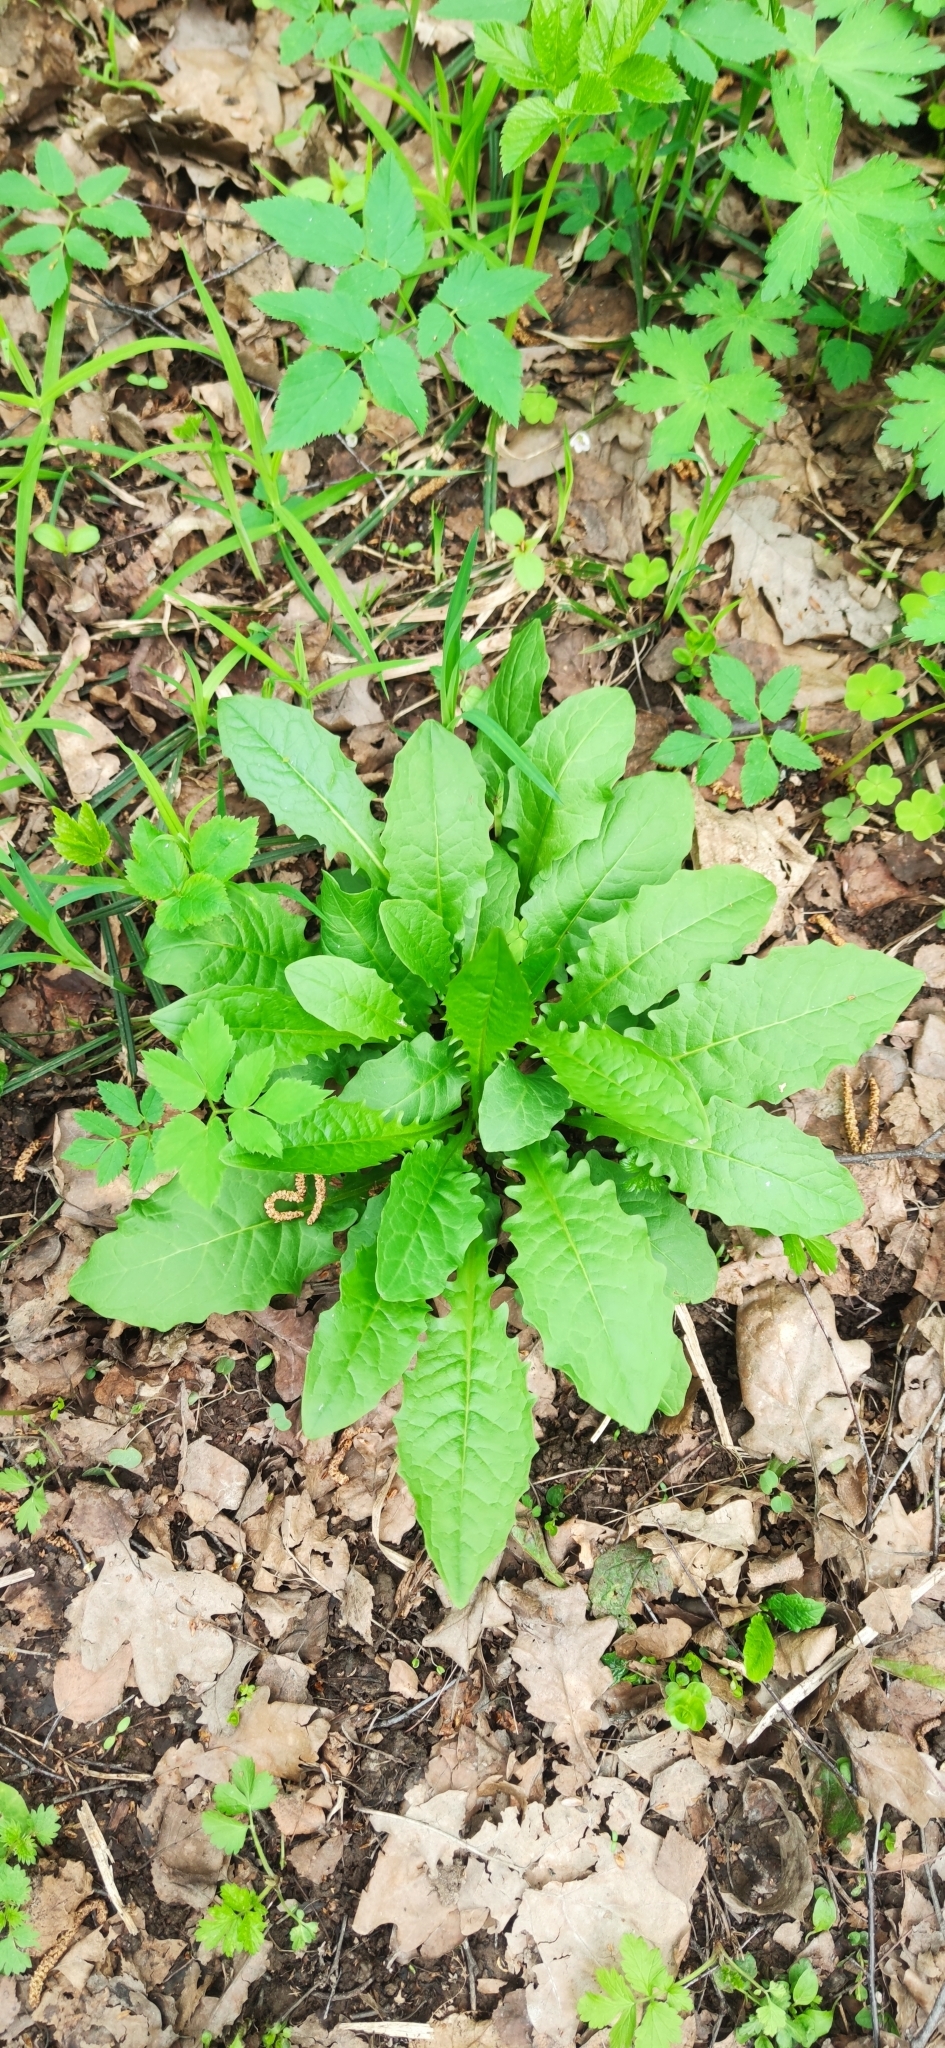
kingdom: Plantae
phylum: Tracheophyta
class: Magnoliopsida
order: Asterales
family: Asteraceae
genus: Crepis
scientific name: Crepis paludosa
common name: Marsh hawk's-beard
